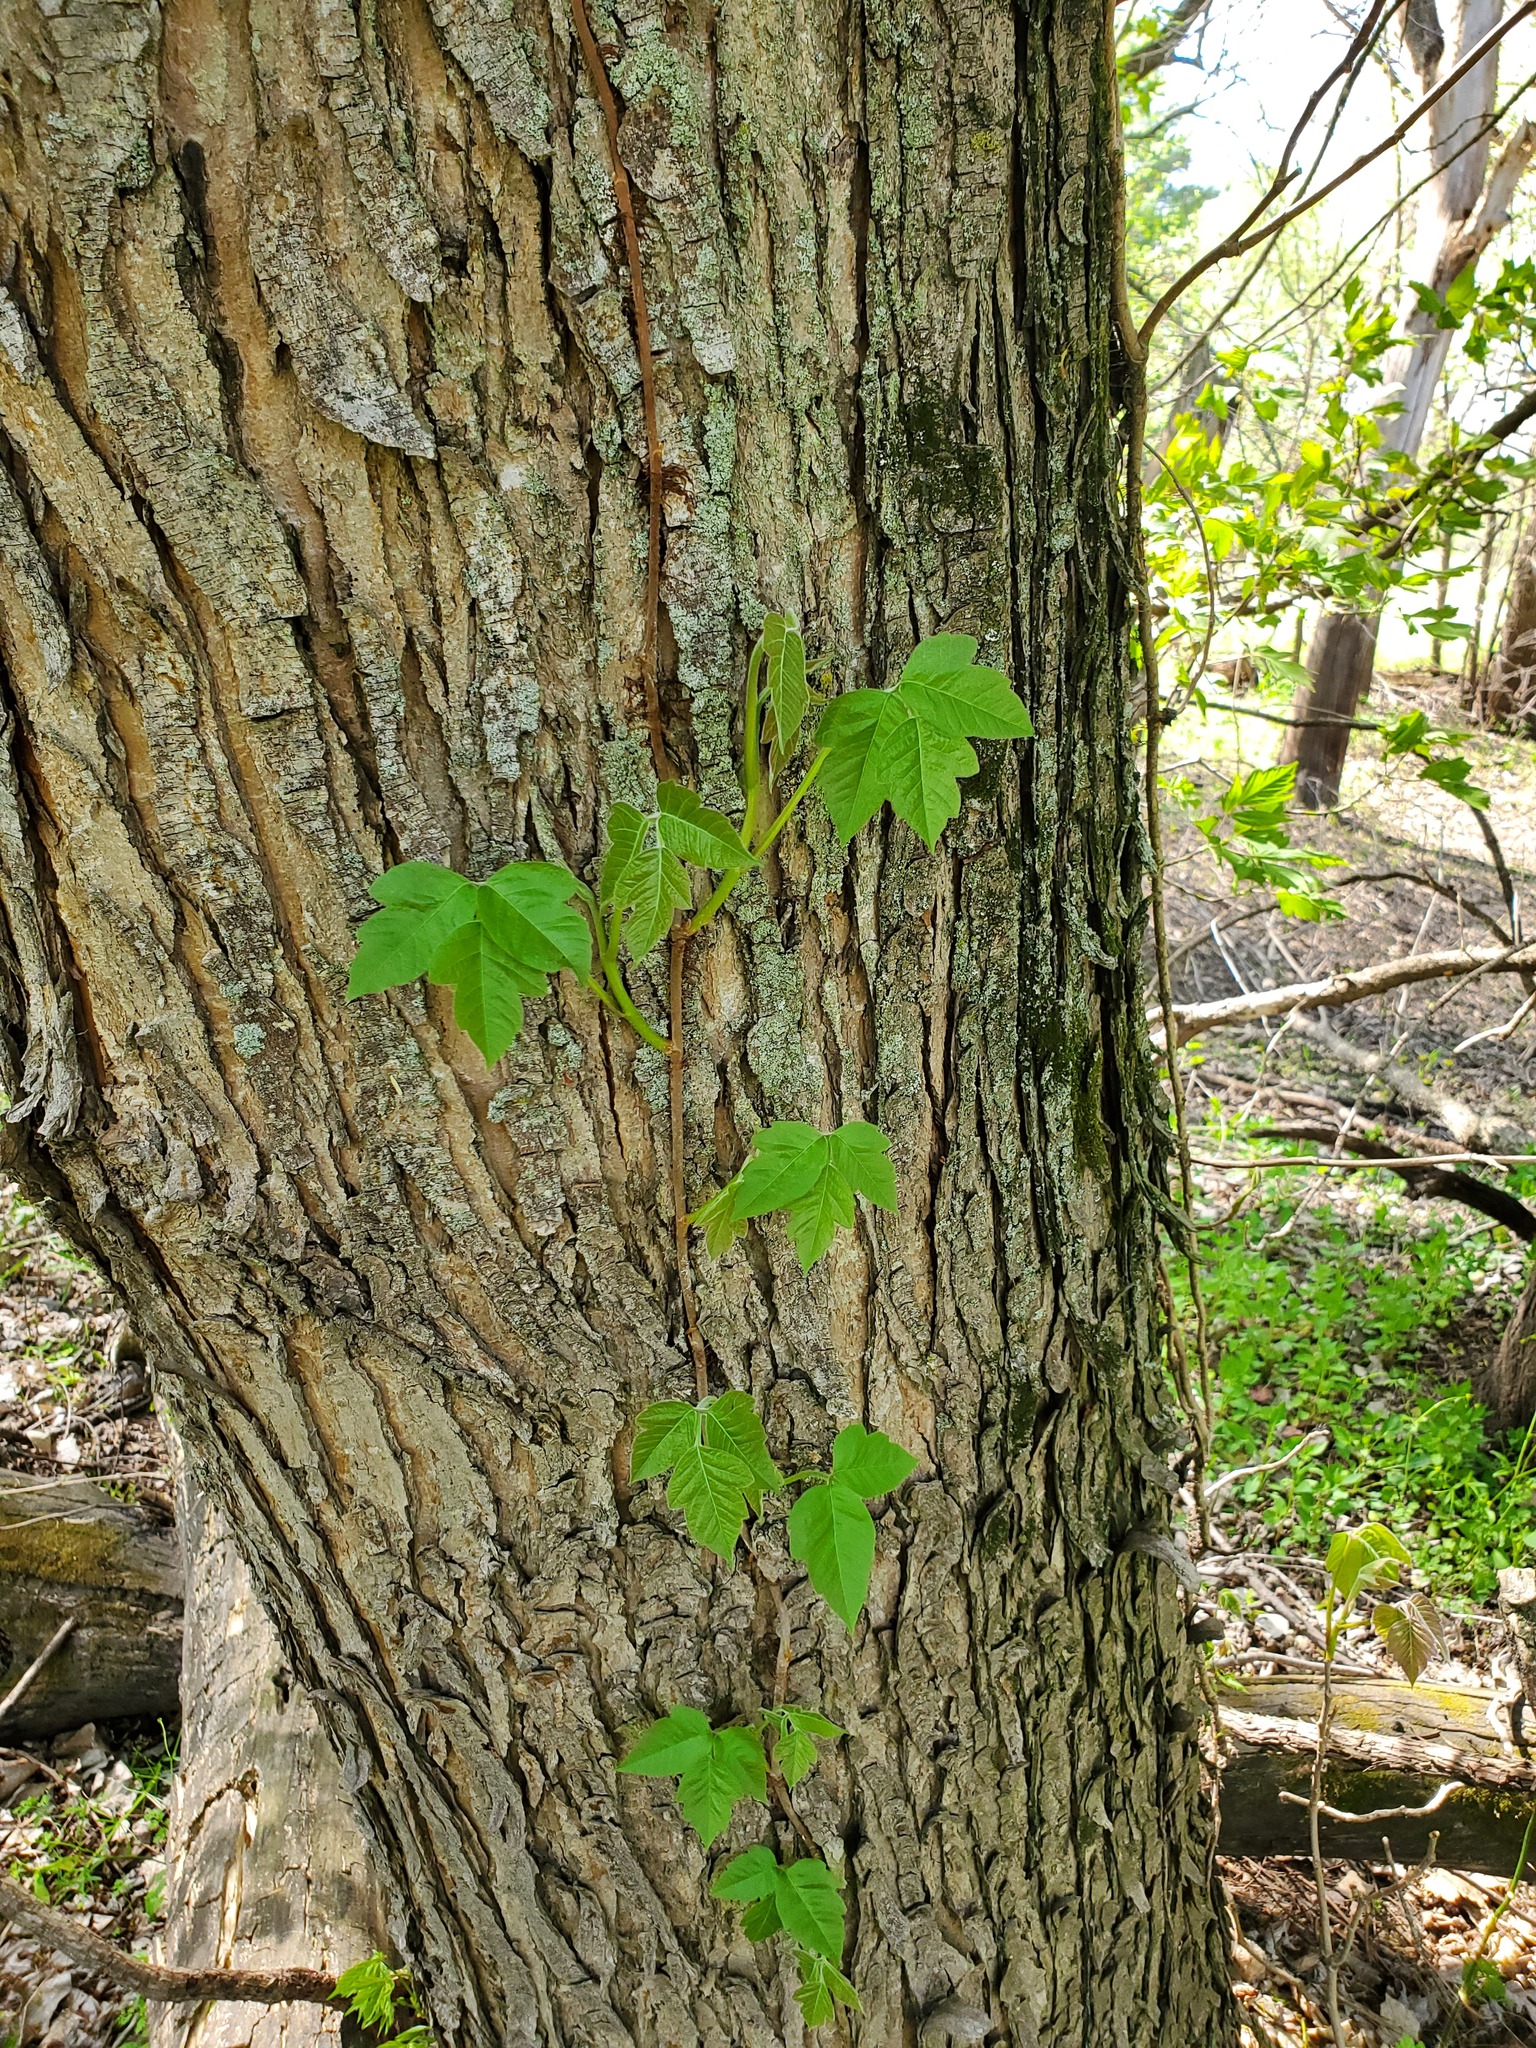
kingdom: Plantae
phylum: Tracheophyta
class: Magnoliopsida
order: Sapindales
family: Anacardiaceae
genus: Toxicodendron
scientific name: Toxicodendron radicans
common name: Poison ivy
